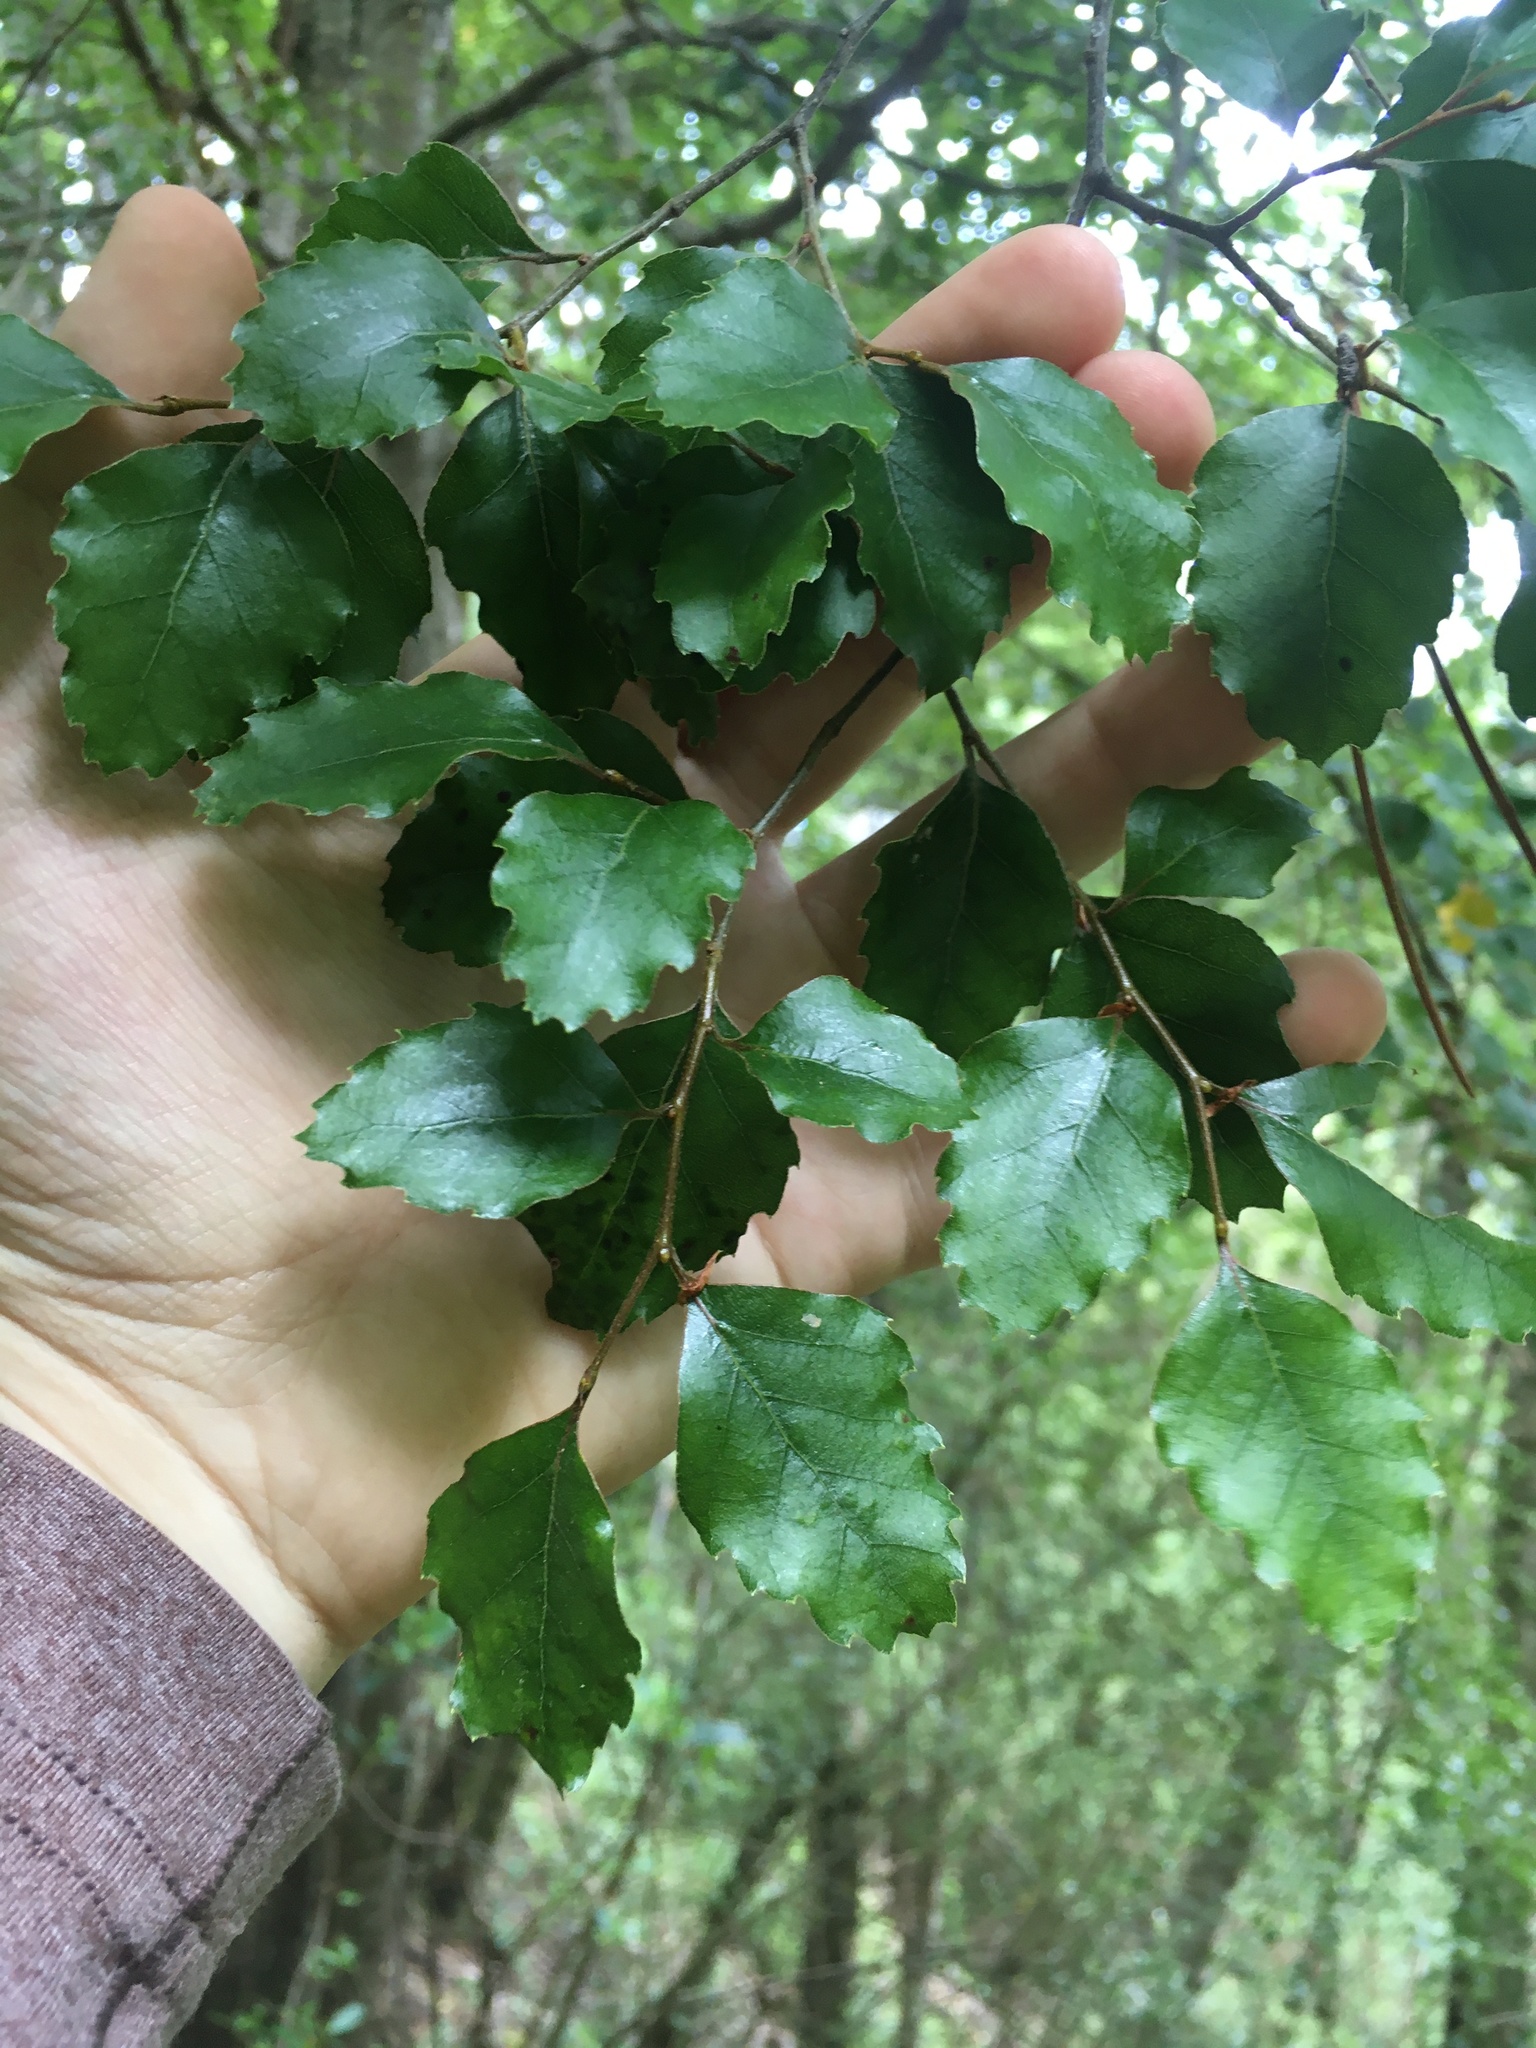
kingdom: Plantae
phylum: Tracheophyta
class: Magnoliopsida
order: Fagales
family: Nothofagaceae
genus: Nothofagus
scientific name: Nothofagus fusca
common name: Red beech
